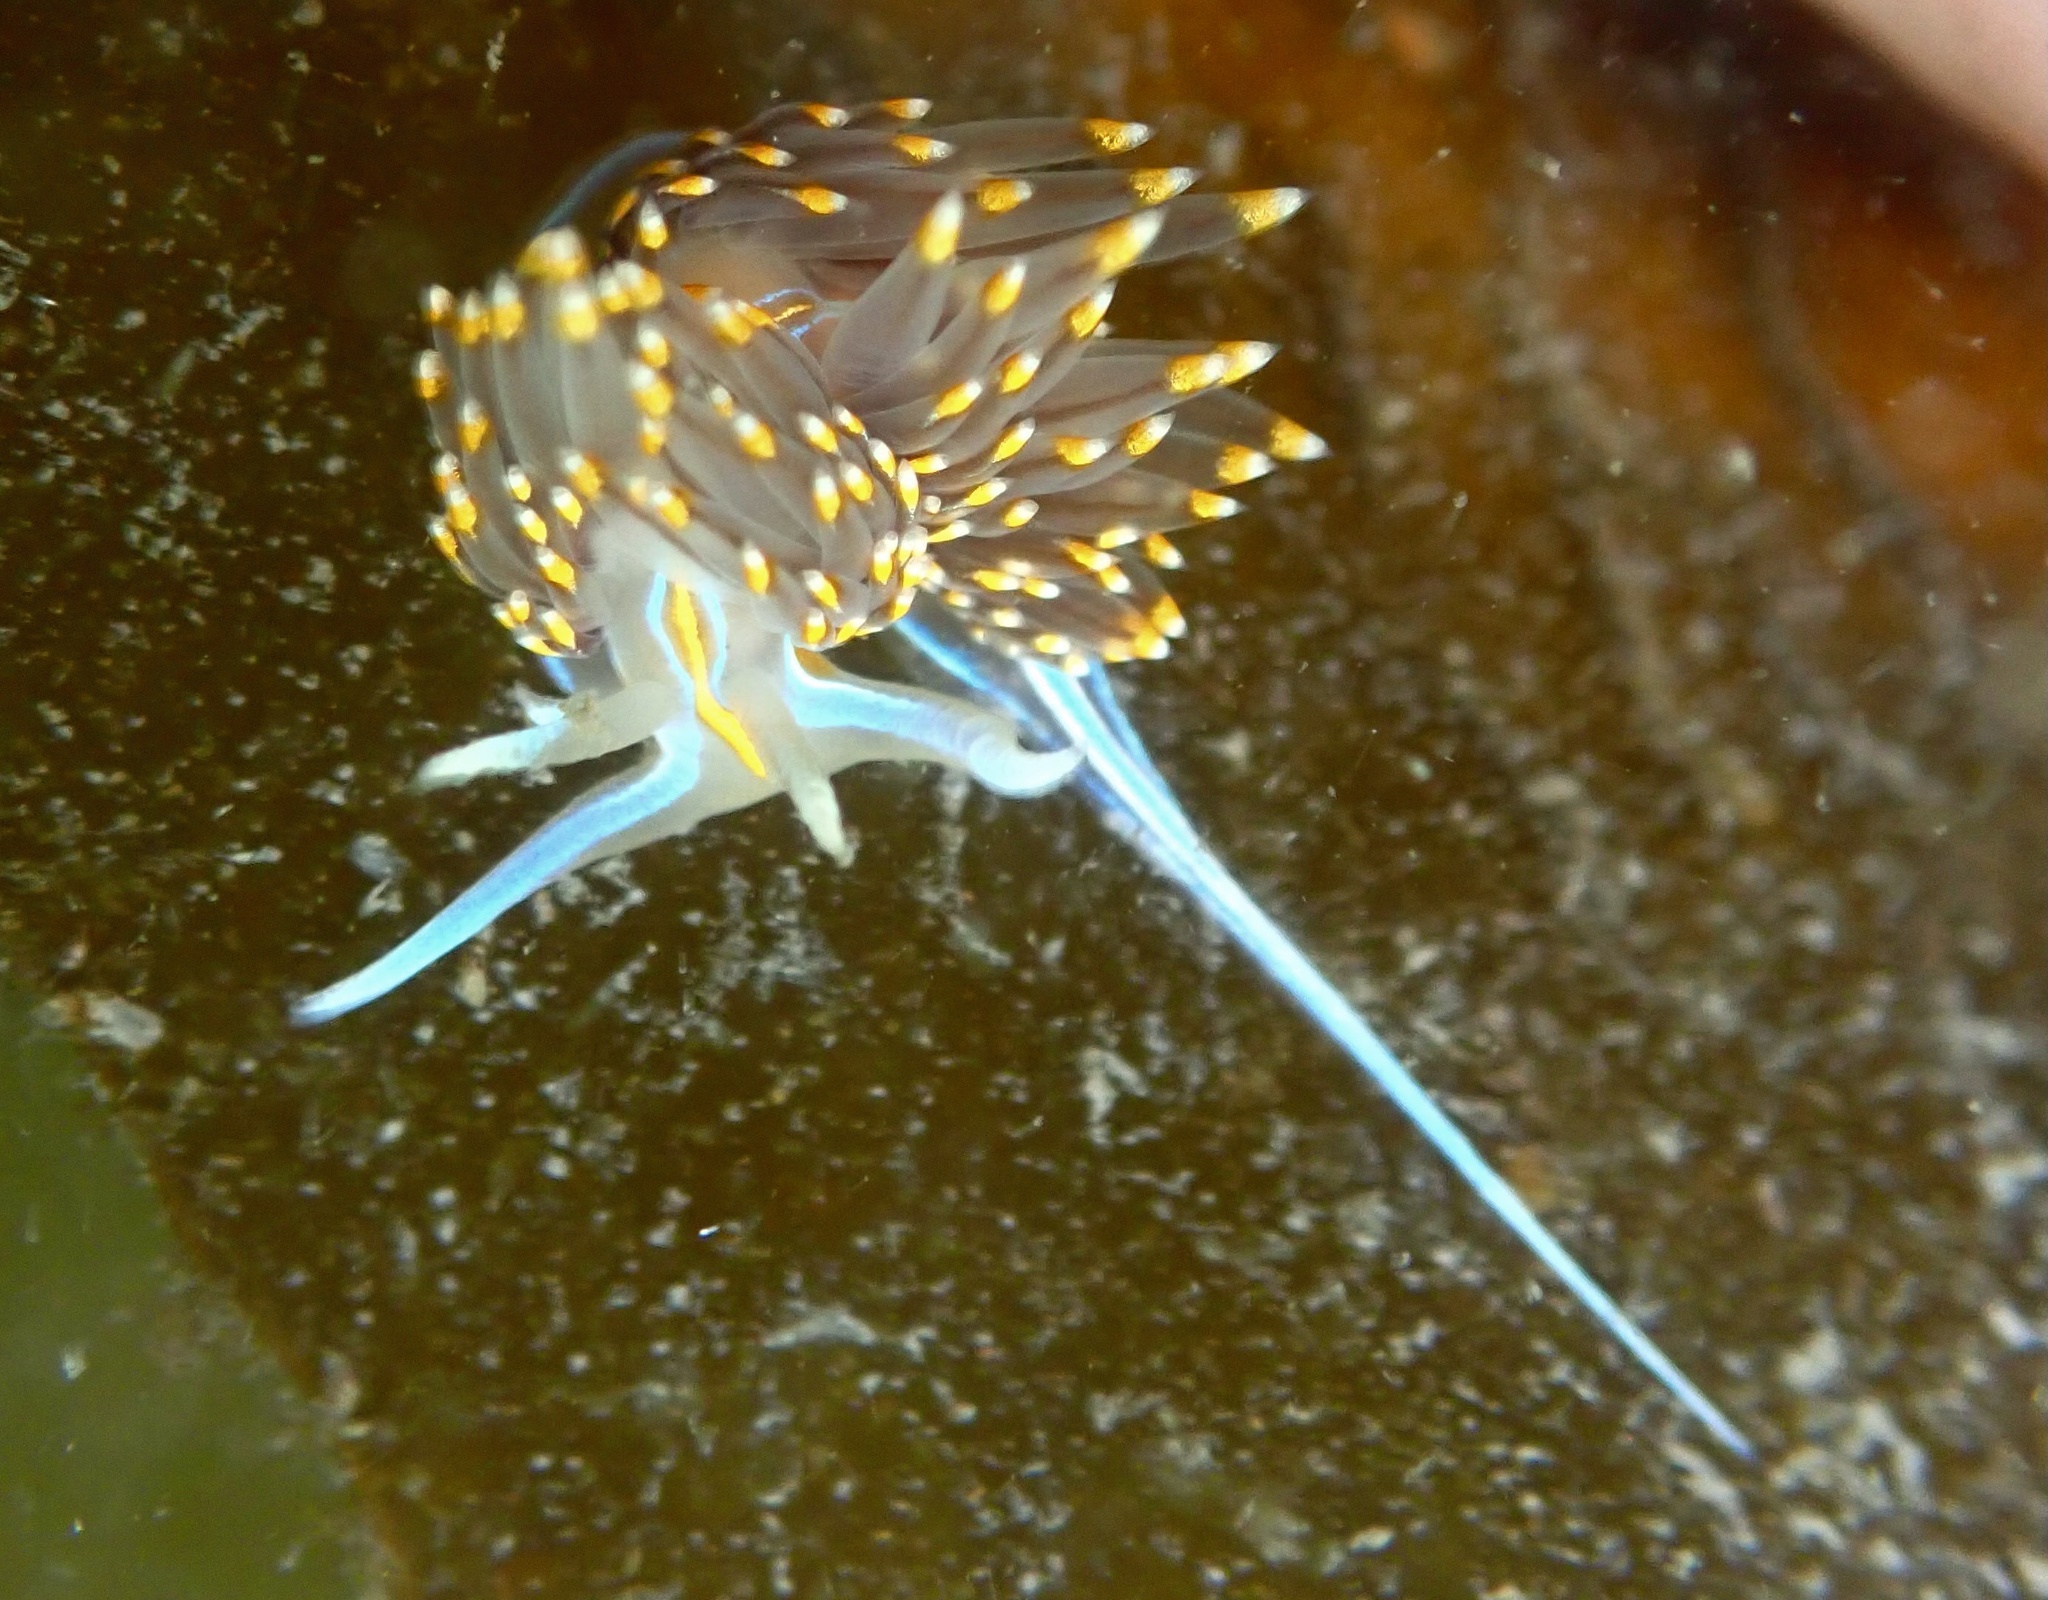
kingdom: Animalia
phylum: Mollusca
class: Gastropoda
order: Nudibranchia
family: Myrrhinidae
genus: Hermissenda
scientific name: Hermissenda opalescens
